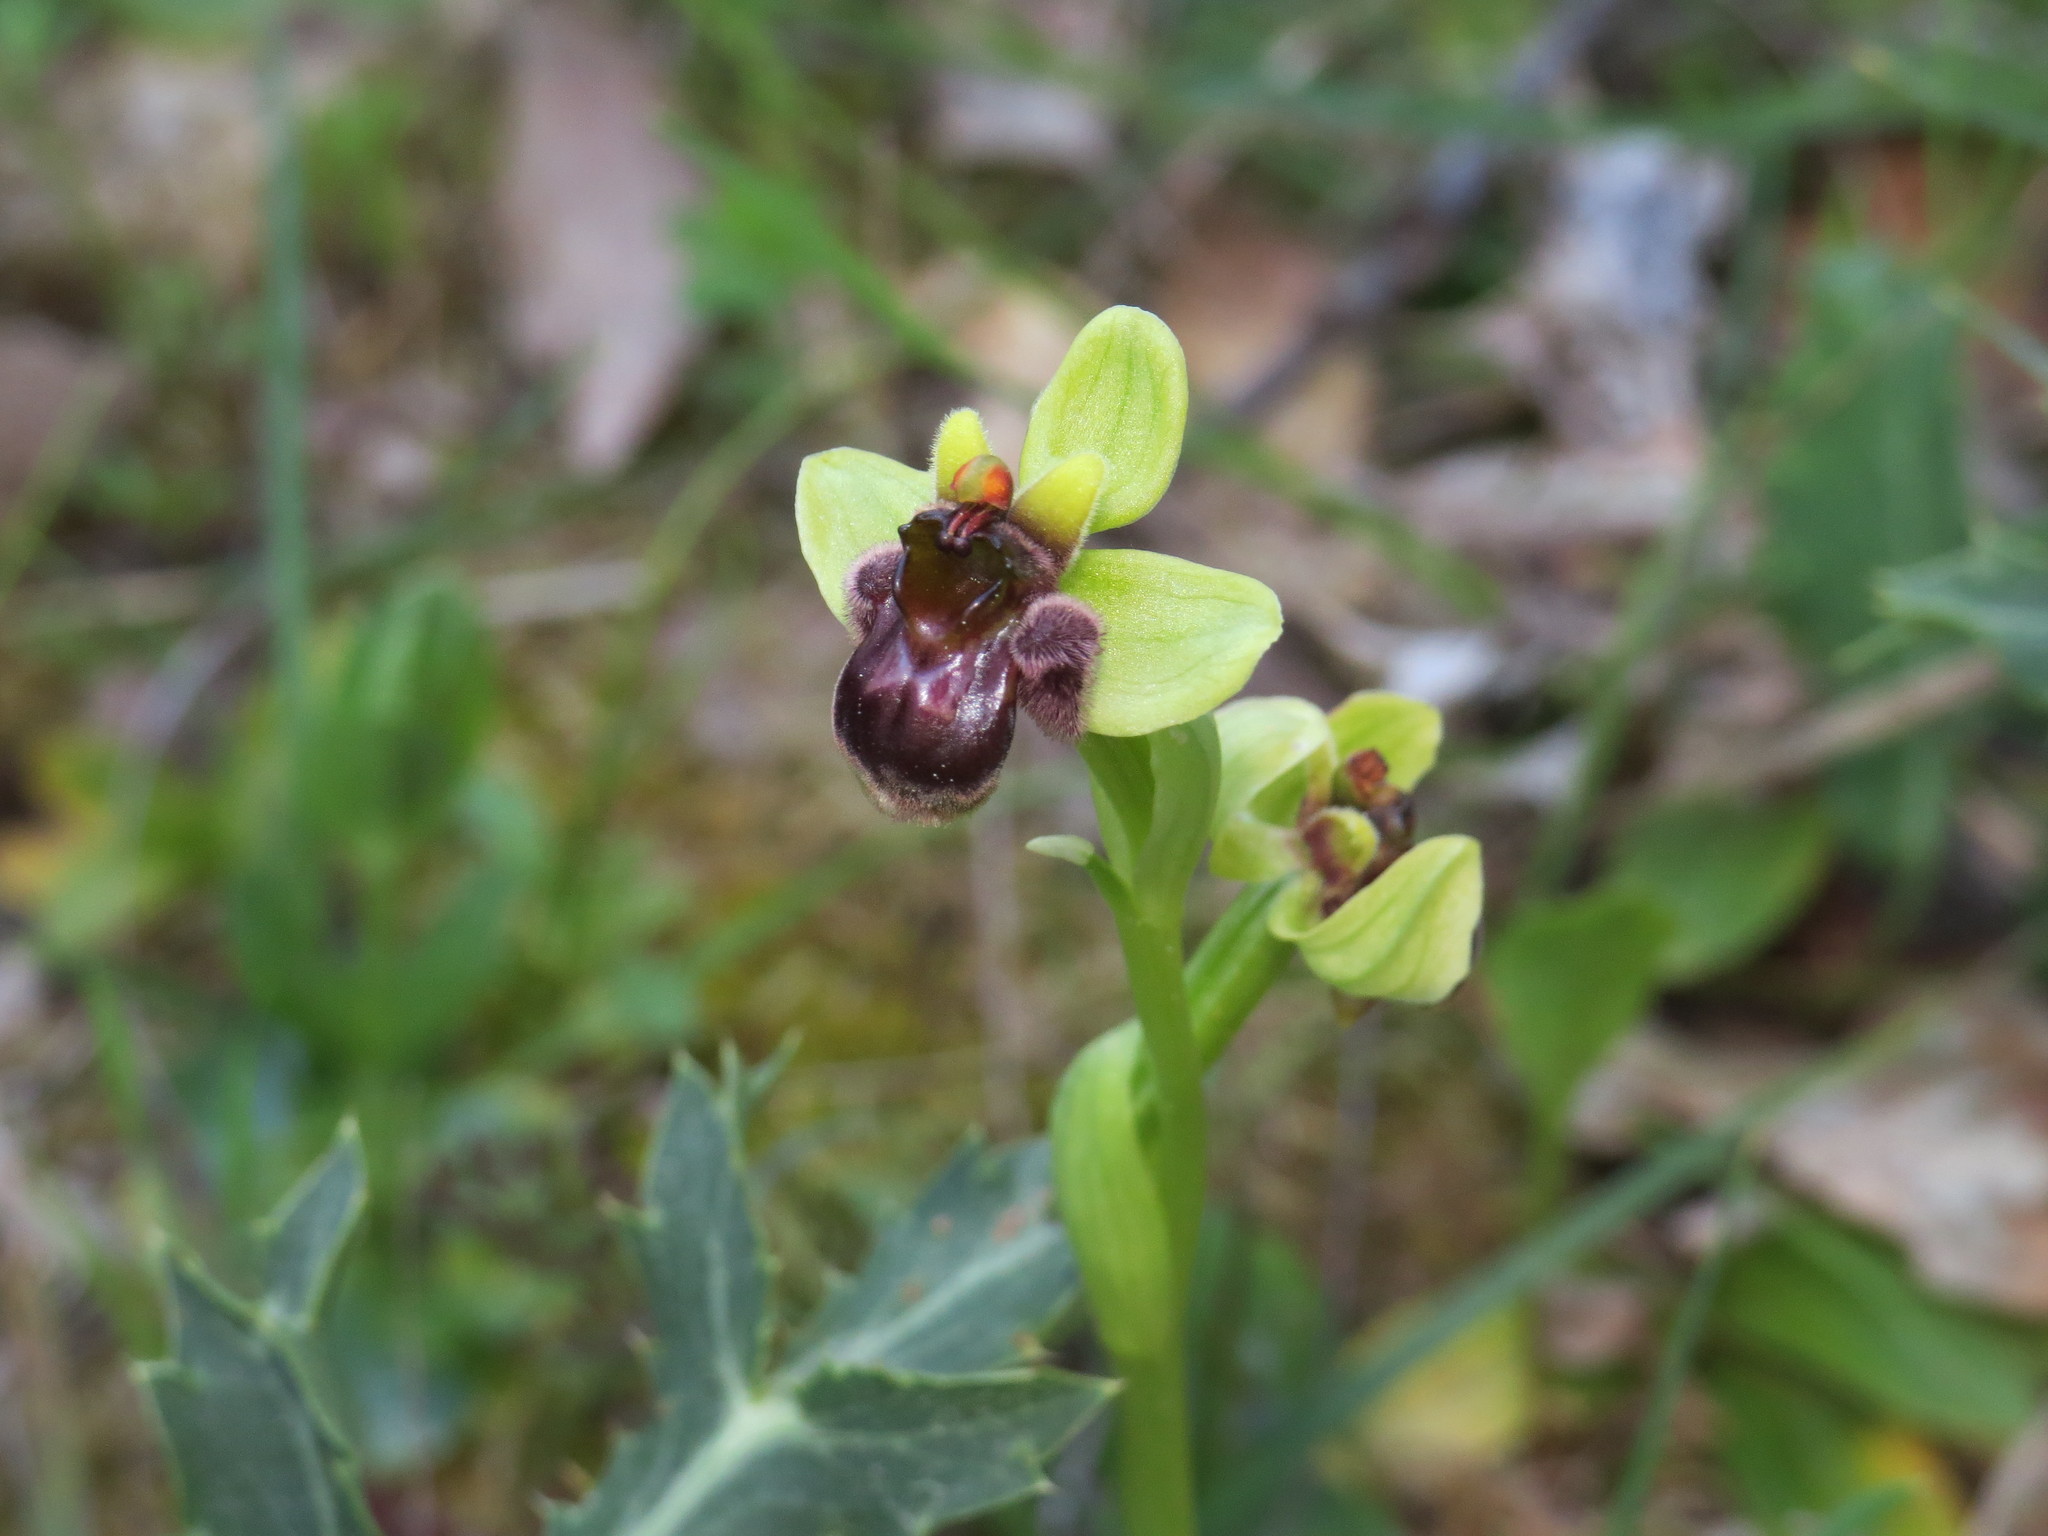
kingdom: Plantae
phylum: Tracheophyta
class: Liliopsida
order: Asparagales
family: Orchidaceae
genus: Ophrys
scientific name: Ophrys bombyliflora
